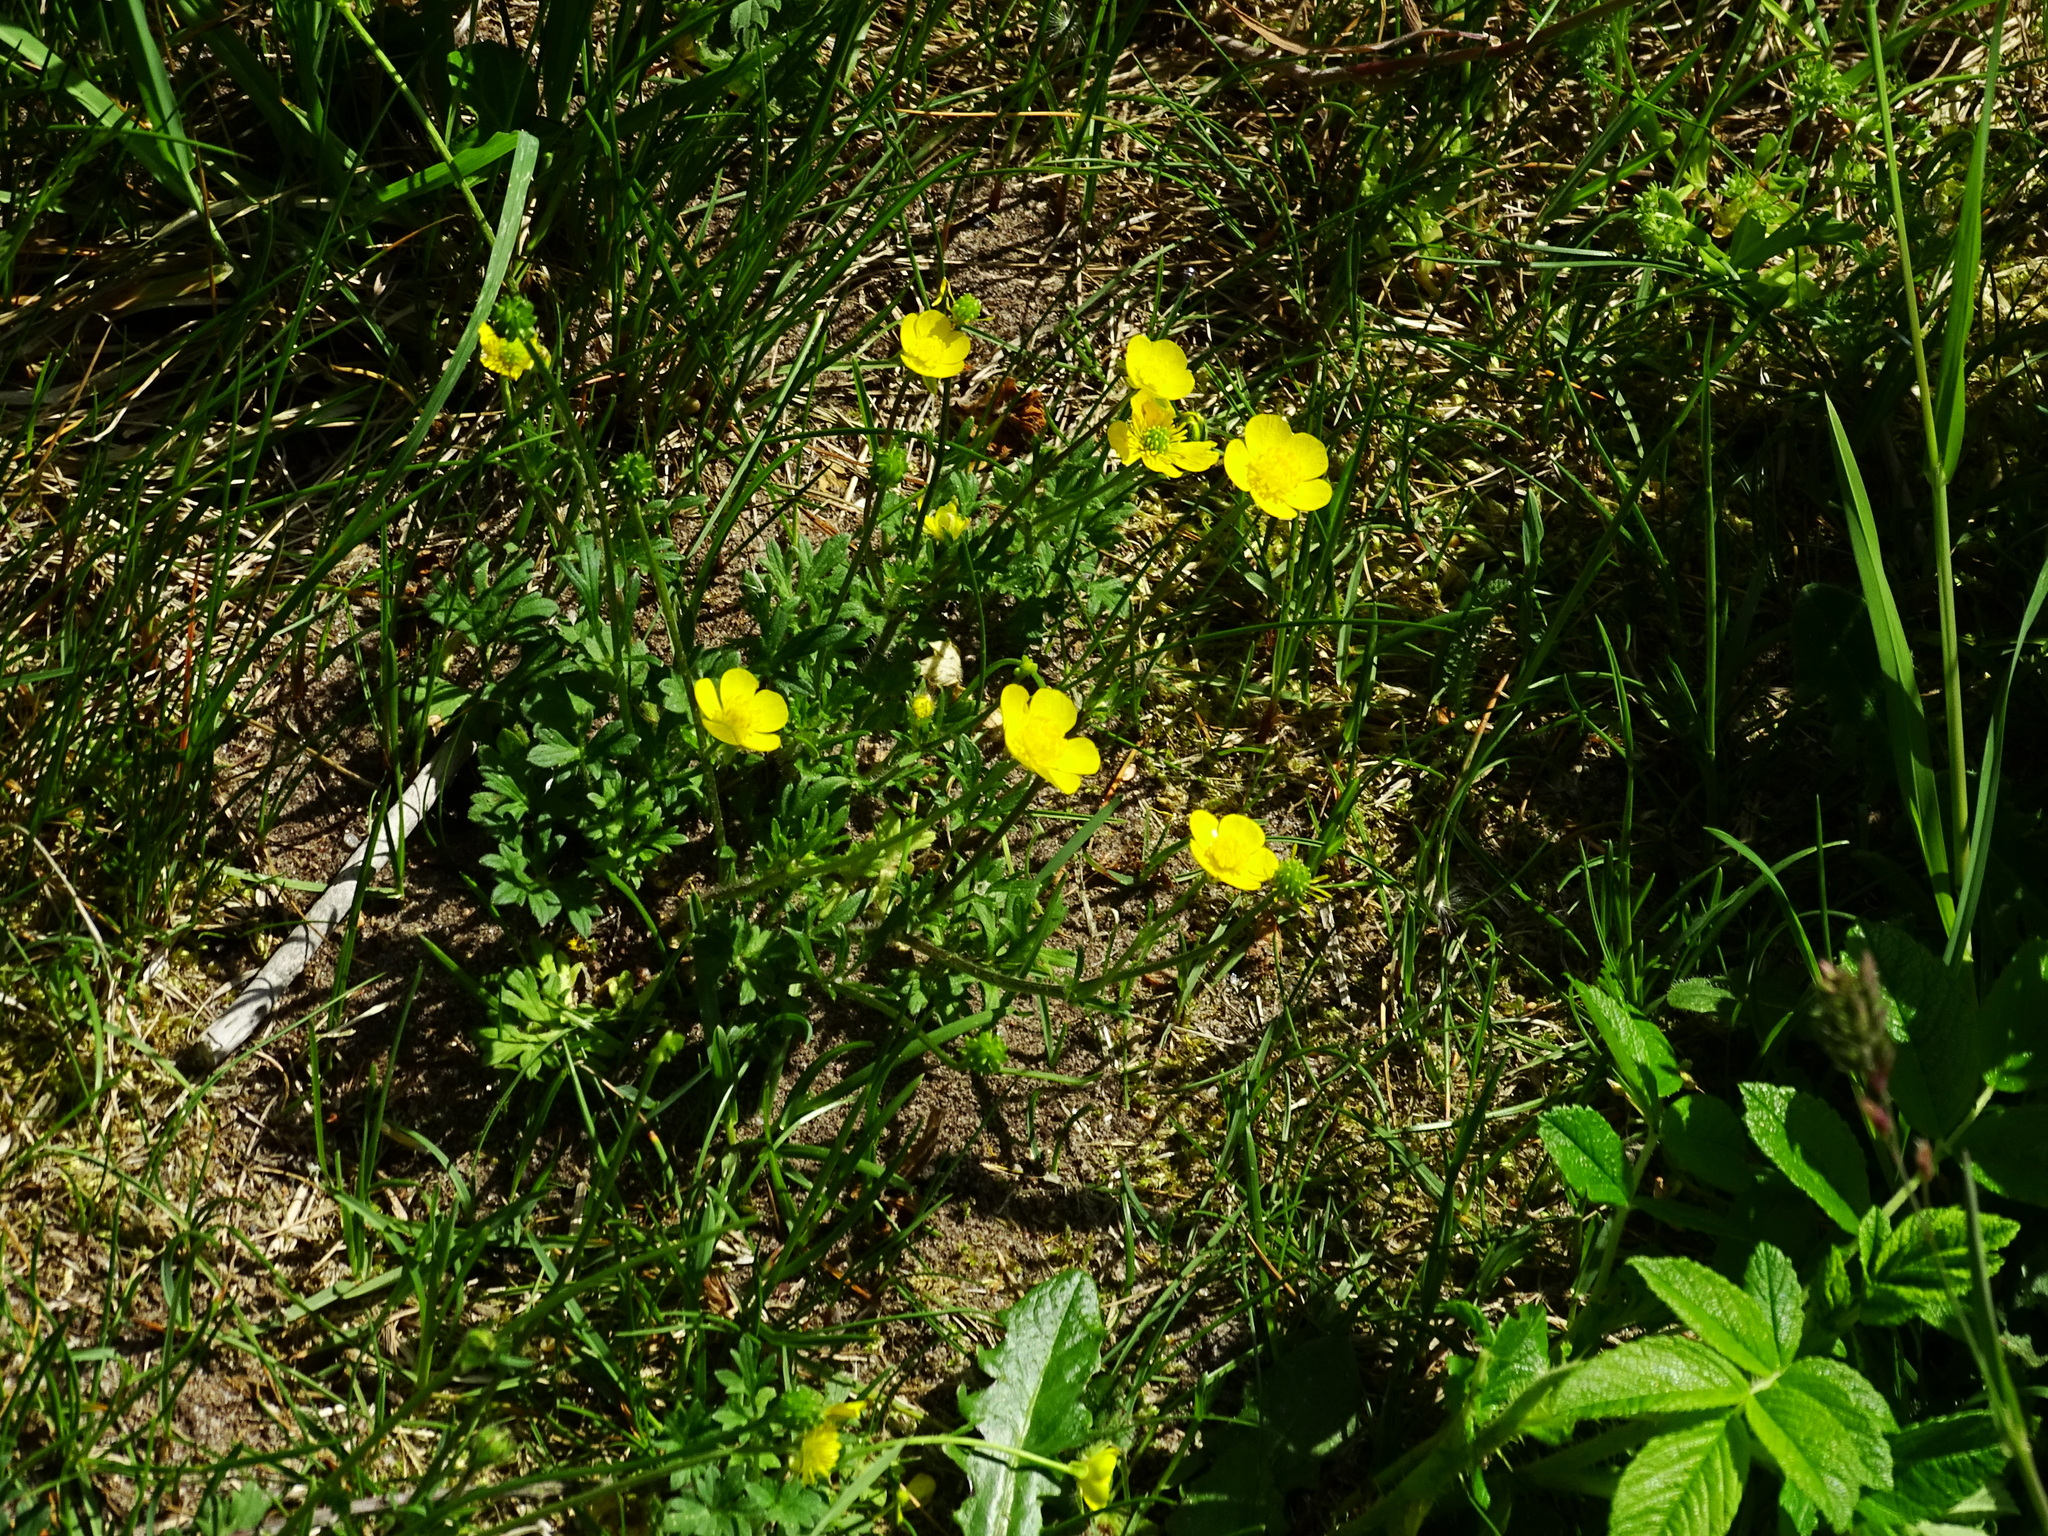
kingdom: Plantae
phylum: Tracheophyta
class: Magnoliopsida
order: Ranunculales
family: Ranunculaceae
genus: Ranunculus
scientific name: Ranunculus bulbosus
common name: Bulbous buttercup
